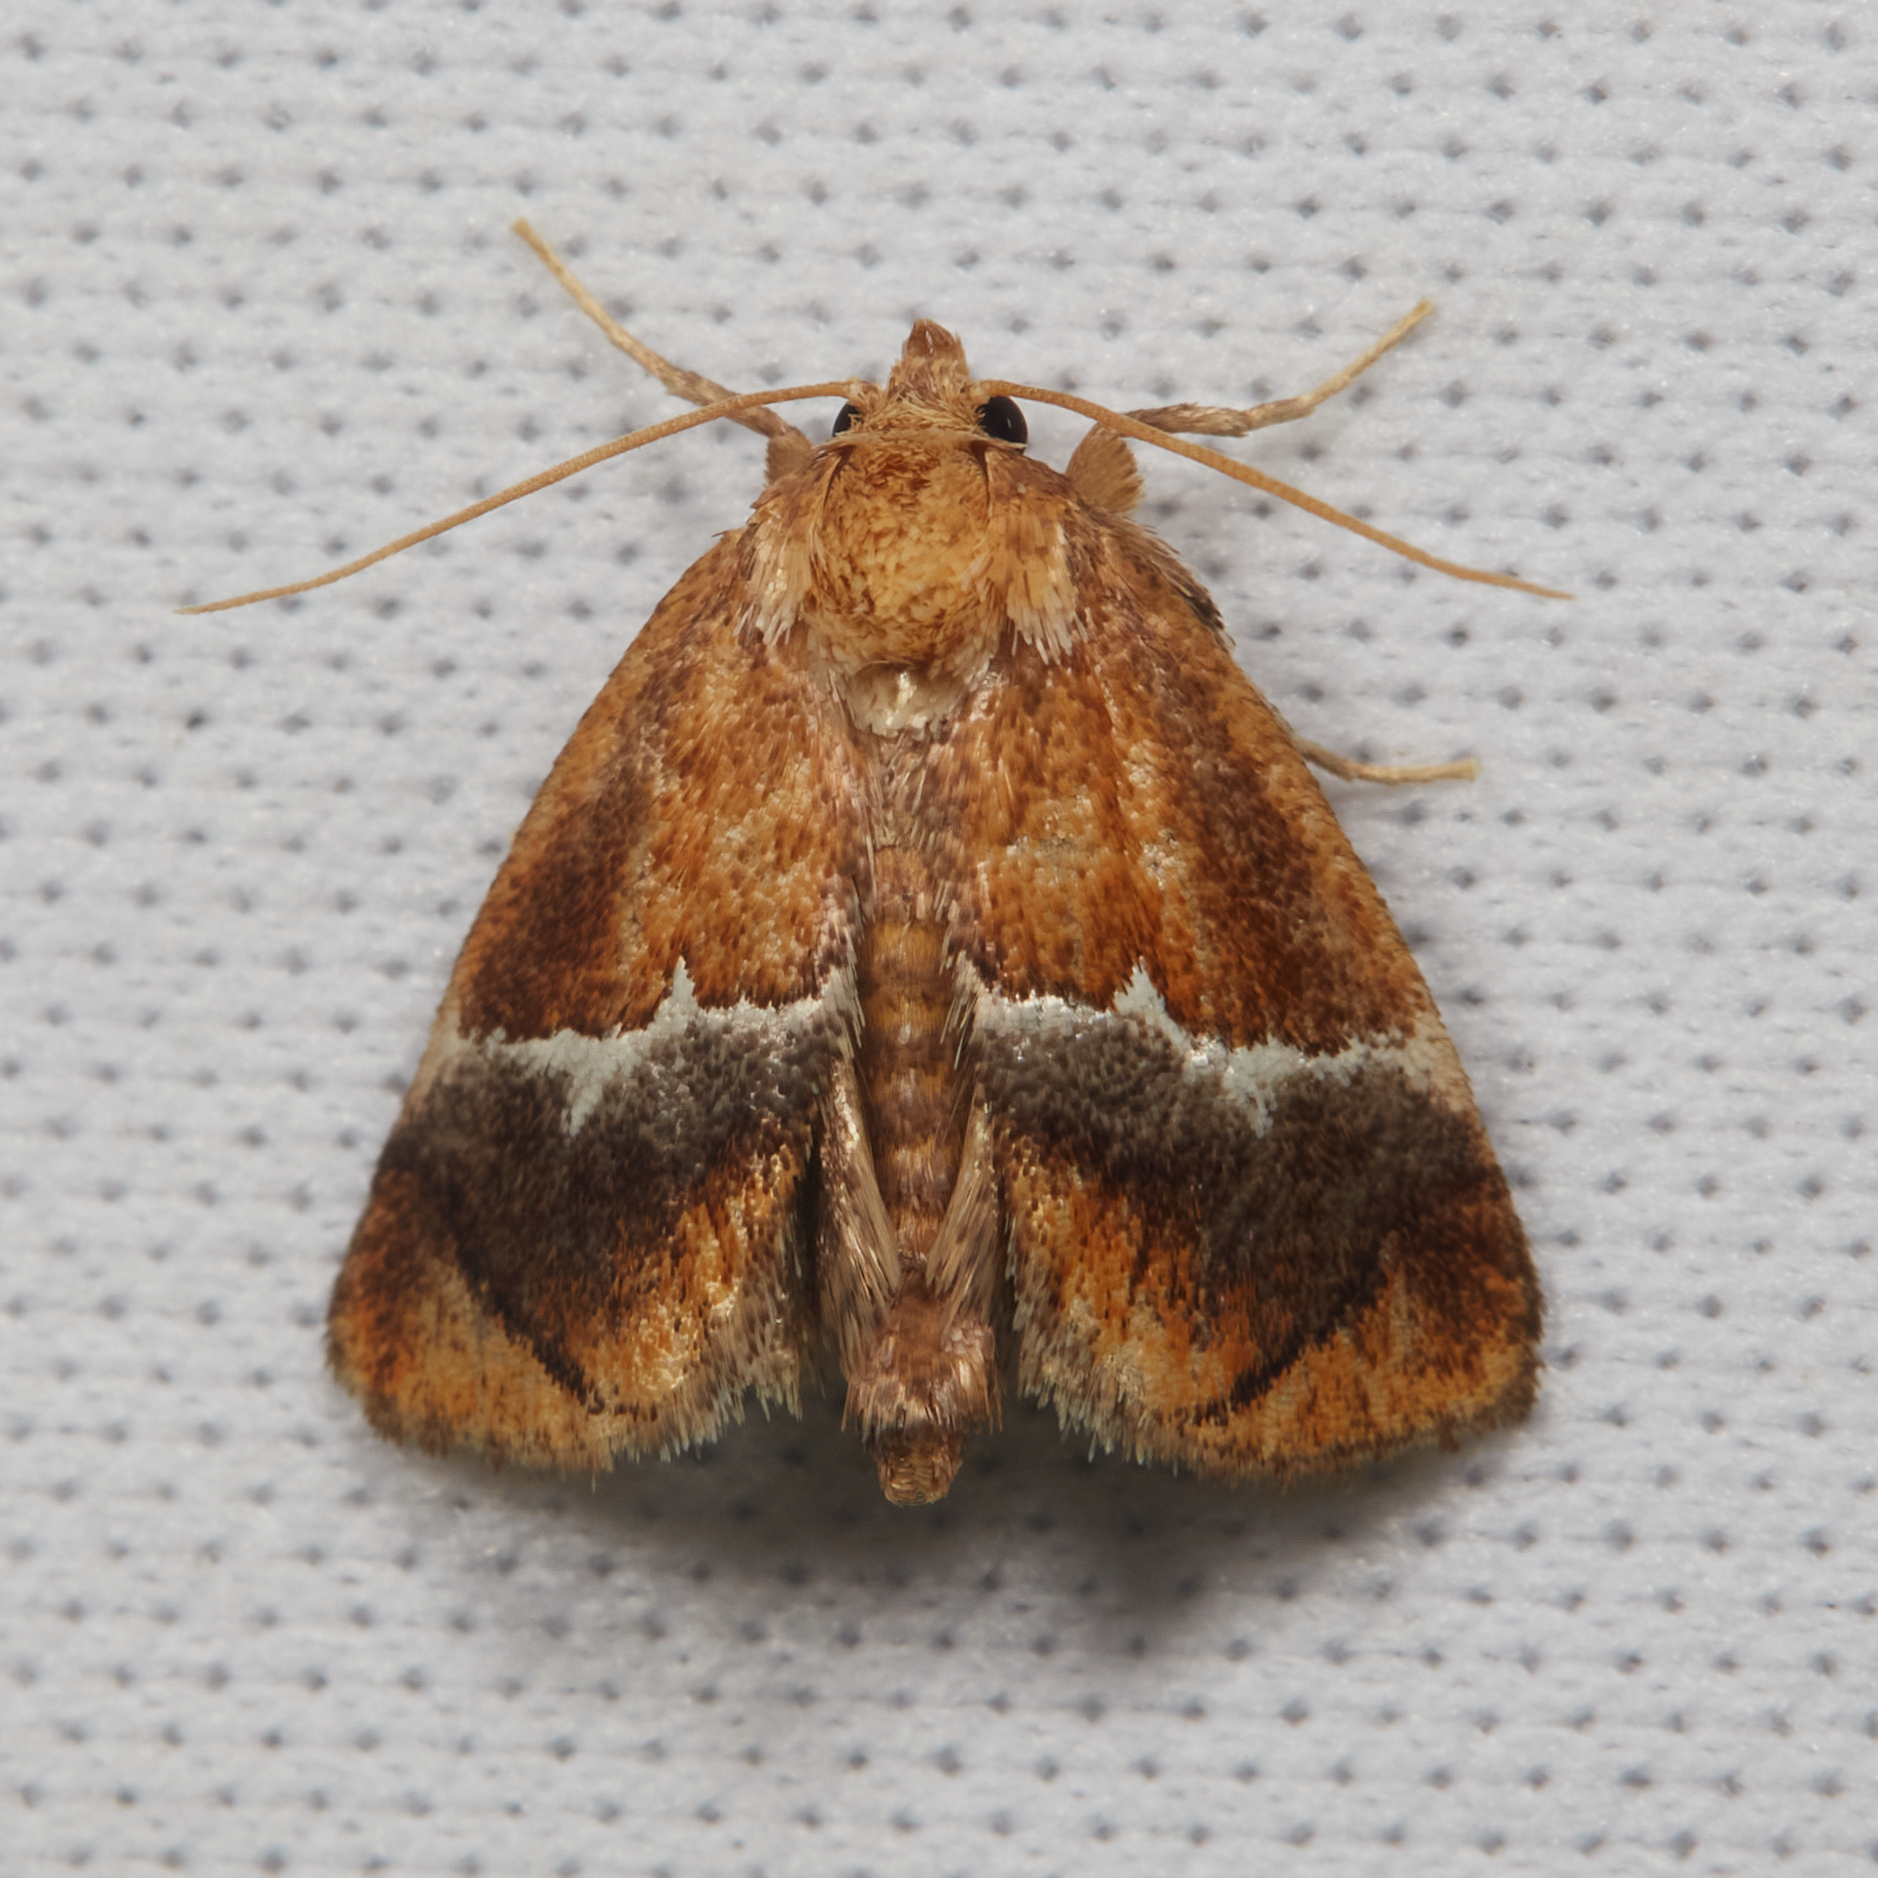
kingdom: Animalia
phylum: Arthropoda
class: Insecta
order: Lepidoptera
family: Limacodidae
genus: Lithacodes
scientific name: Lithacodes fasciola
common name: Yellow-shouldered slug moth
